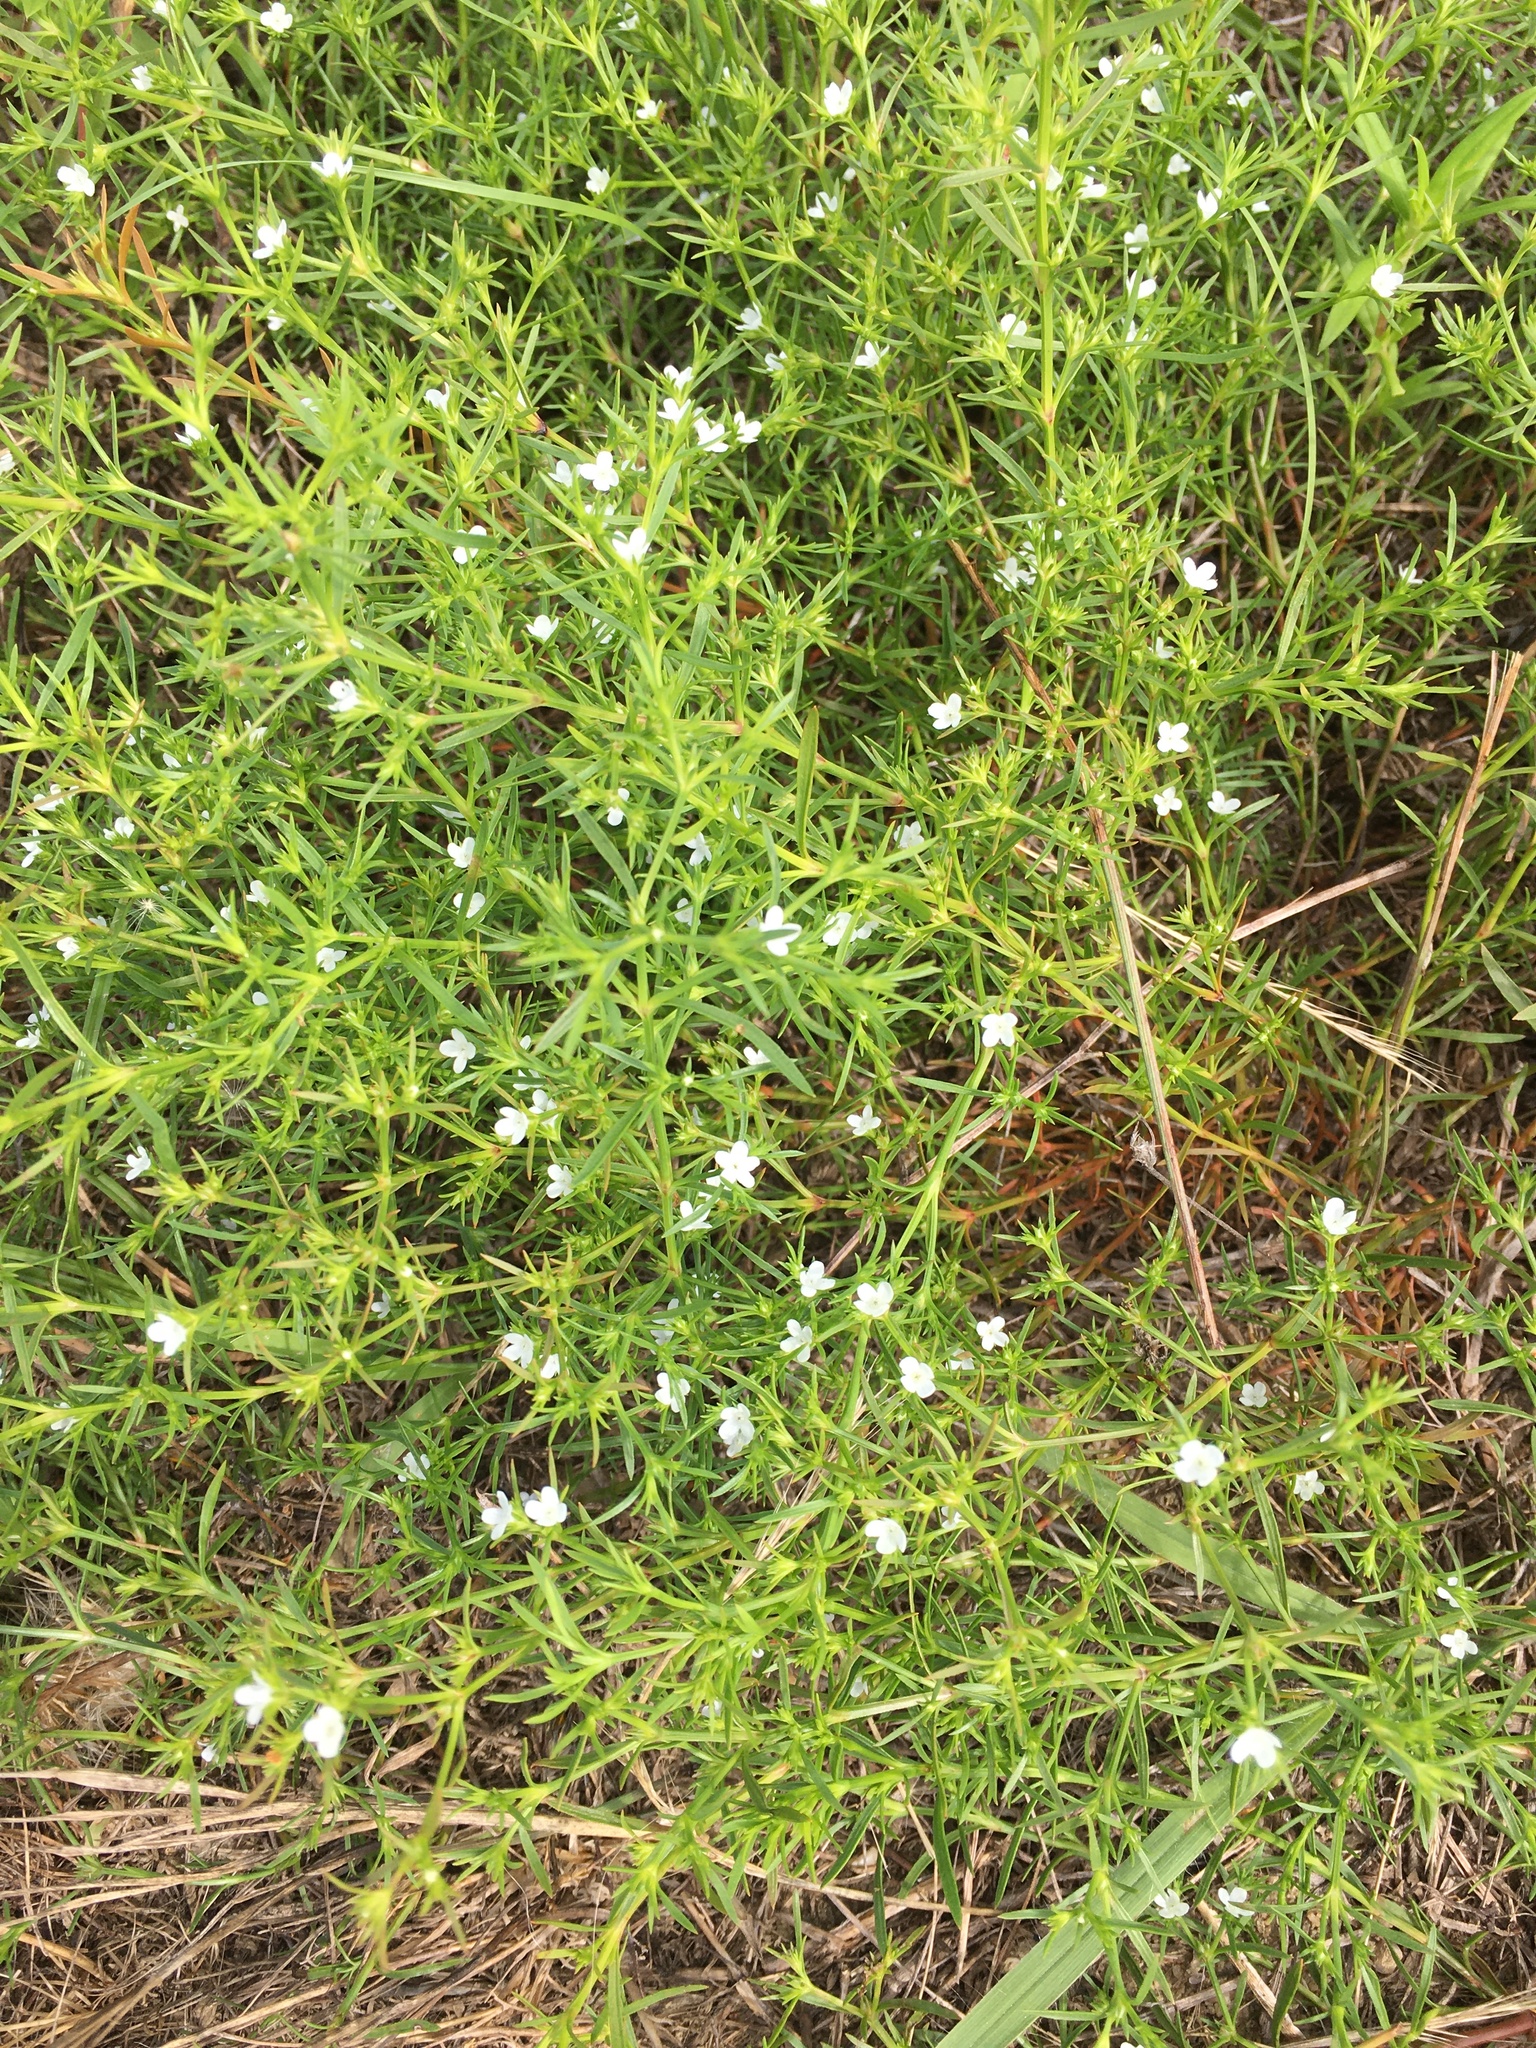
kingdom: Plantae
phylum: Tracheophyta
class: Magnoliopsida
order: Lamiales
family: Tetrachondraceae
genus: Polypremum
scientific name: Polypremum procumbens
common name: Juniper-leaf
